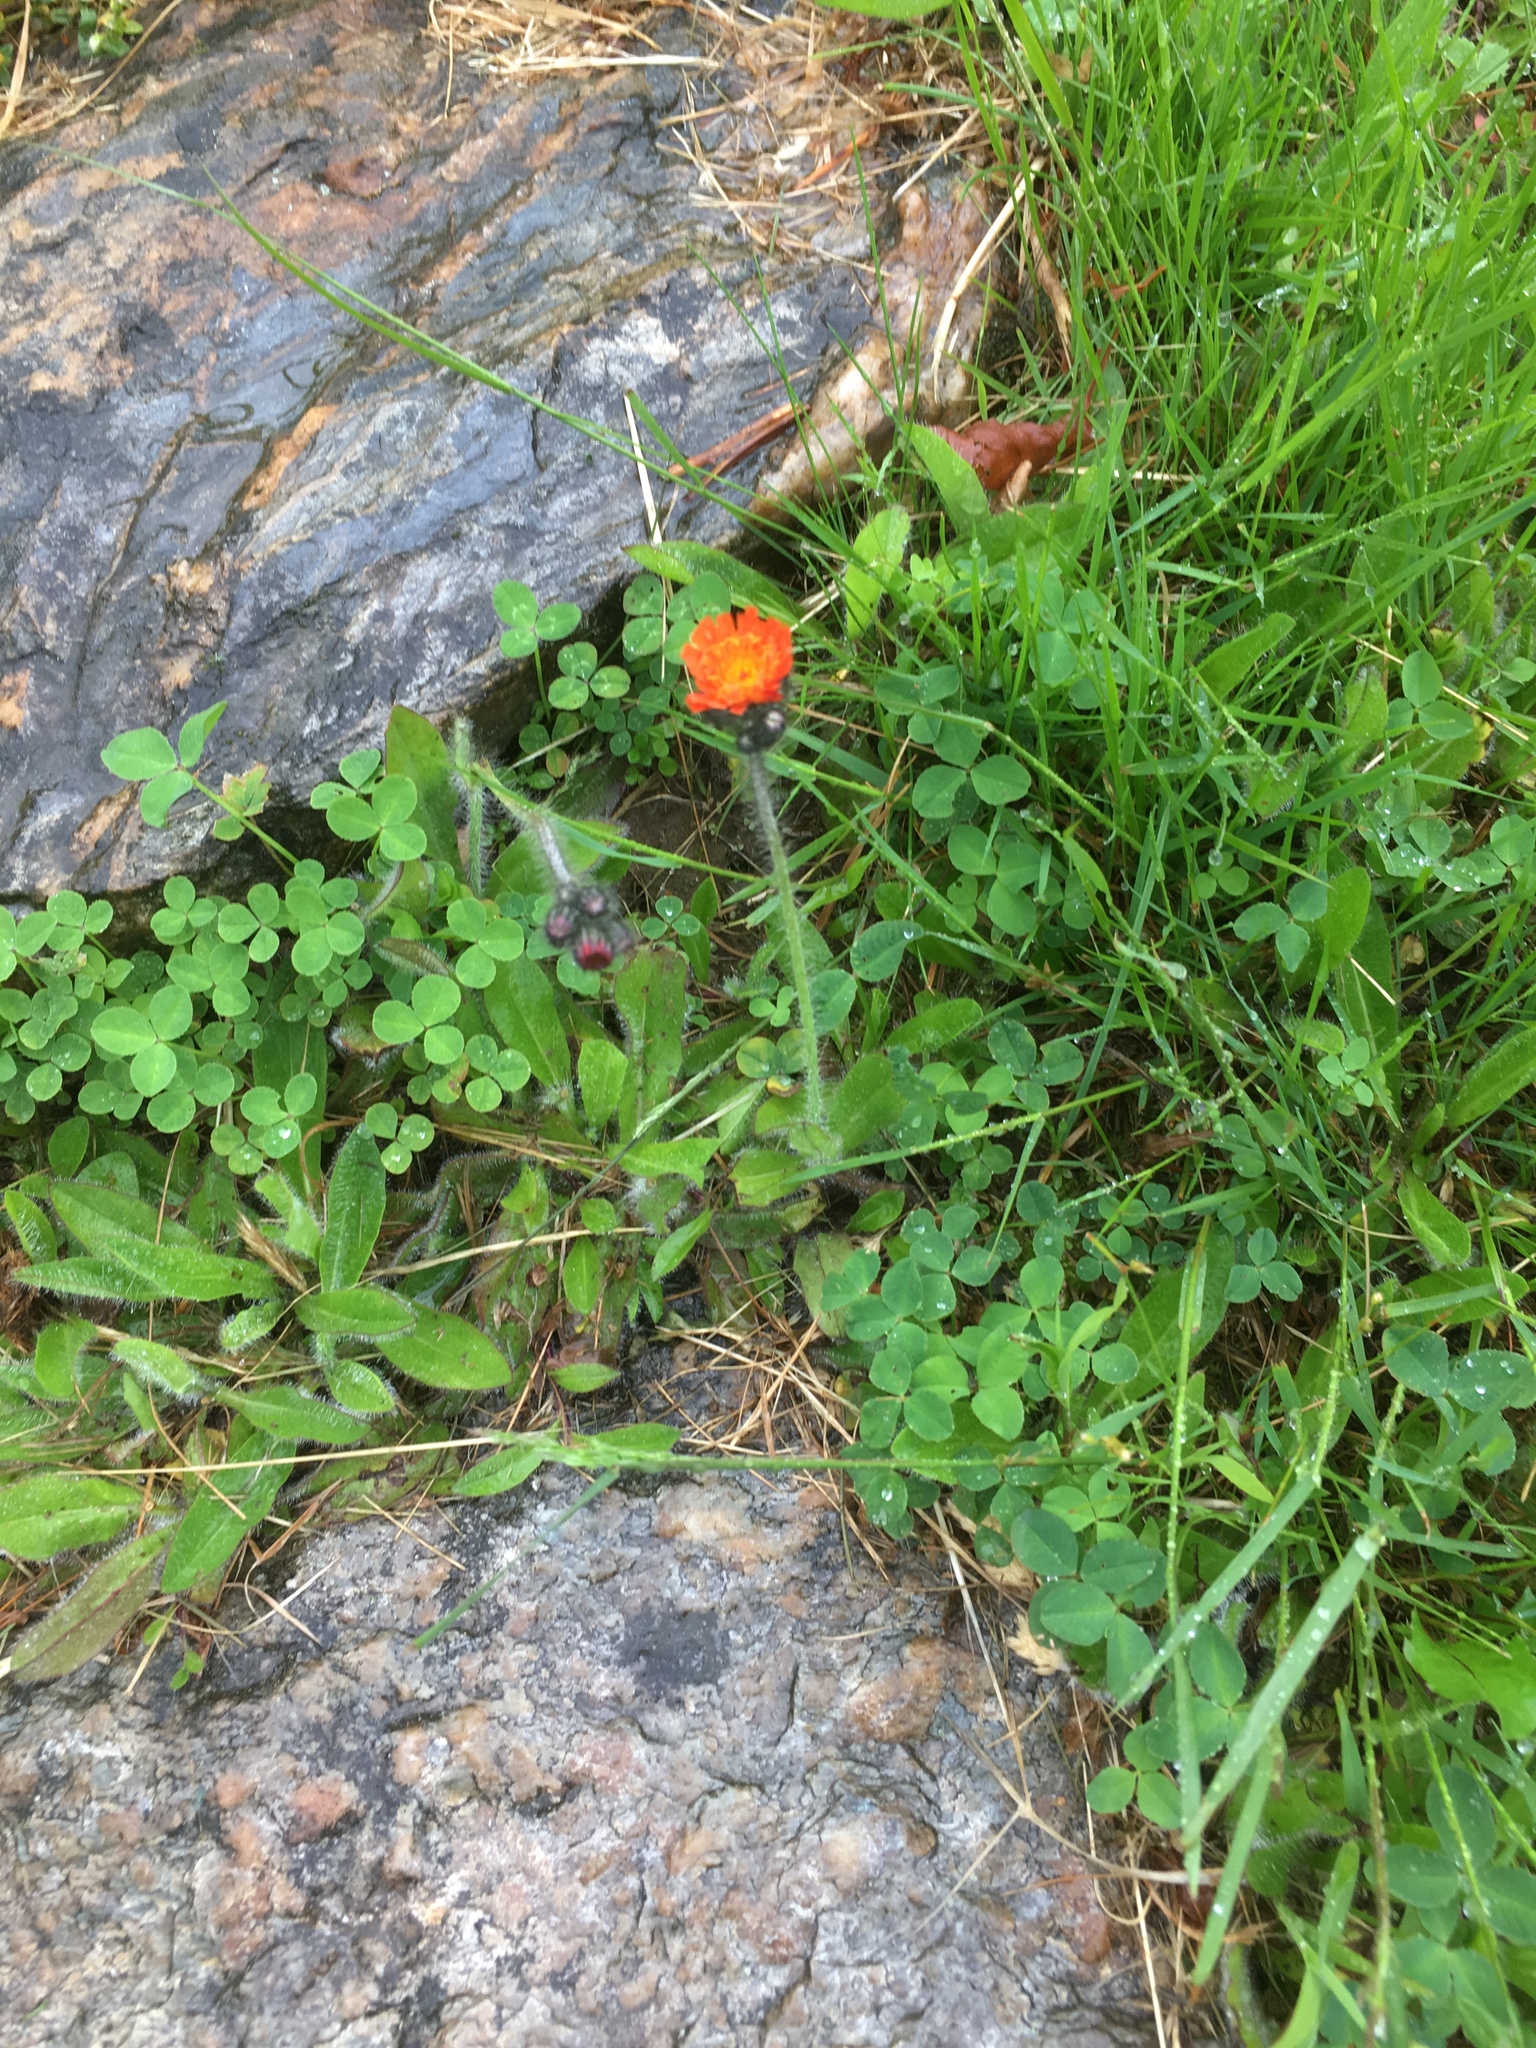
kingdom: Plantae
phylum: Tracheophyta
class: Magnoliopsida
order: Asterales
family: Asteraceae
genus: Pilosella
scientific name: Pilosella aurantiaca
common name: Fox-and-cubs
